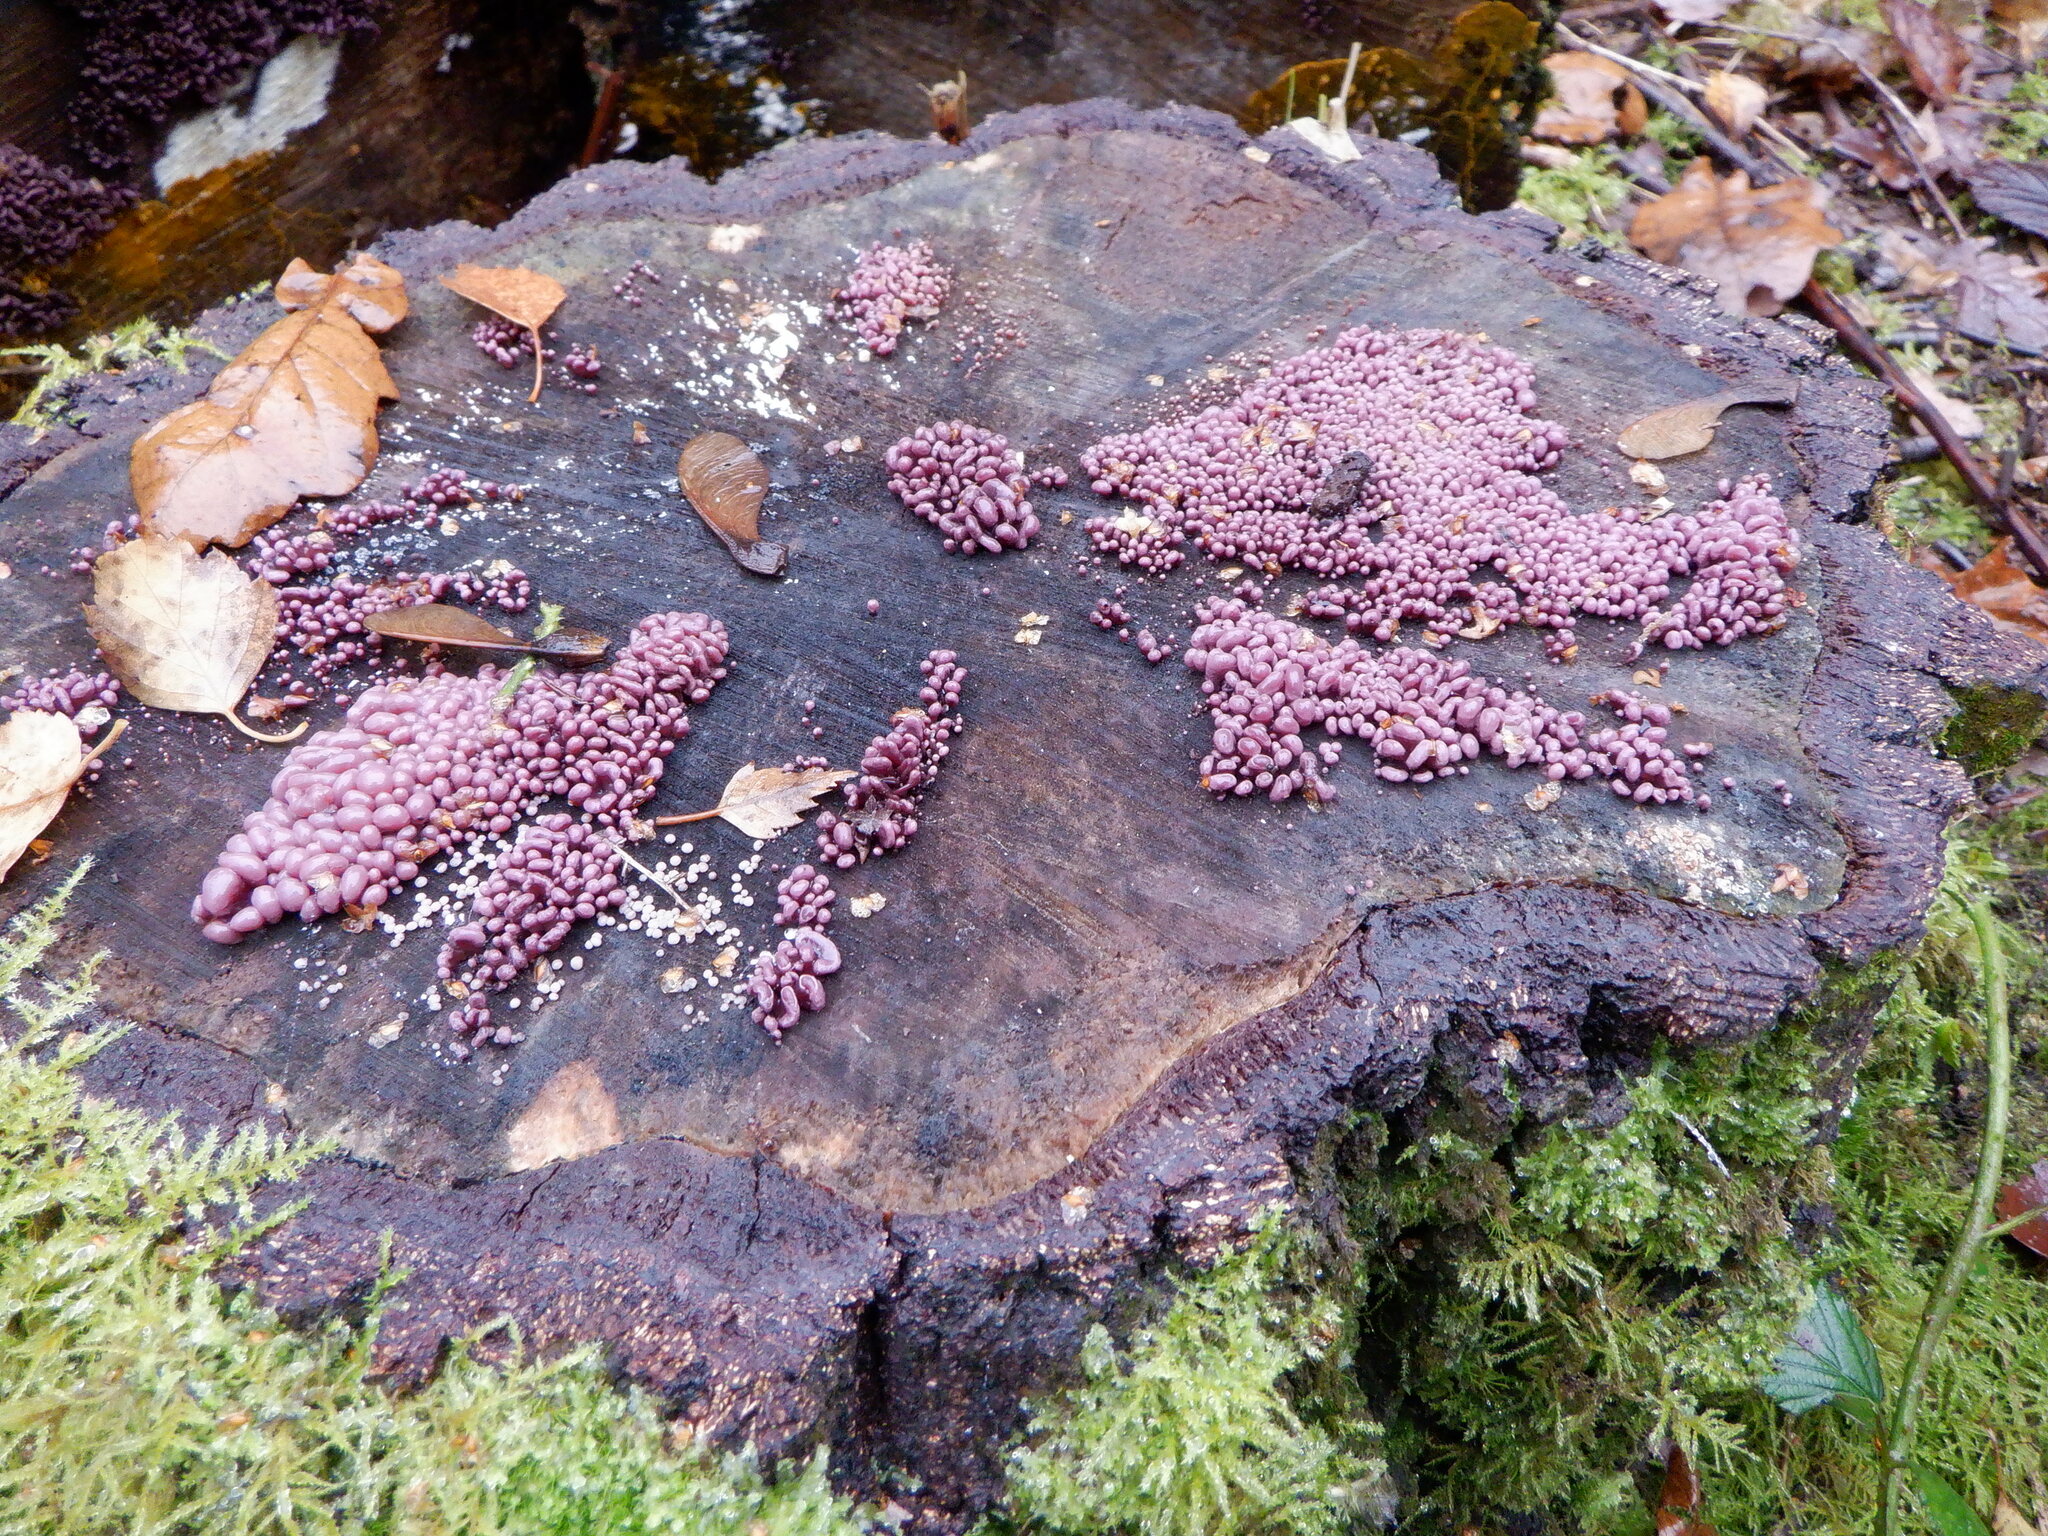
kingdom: Fungi
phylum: Ascomycota
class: Leotiomycetes
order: Helotiales
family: Gelatinodiscaceae
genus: Ascocoryne
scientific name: Ascocoryne sarcoides
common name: Purple jellydisc
